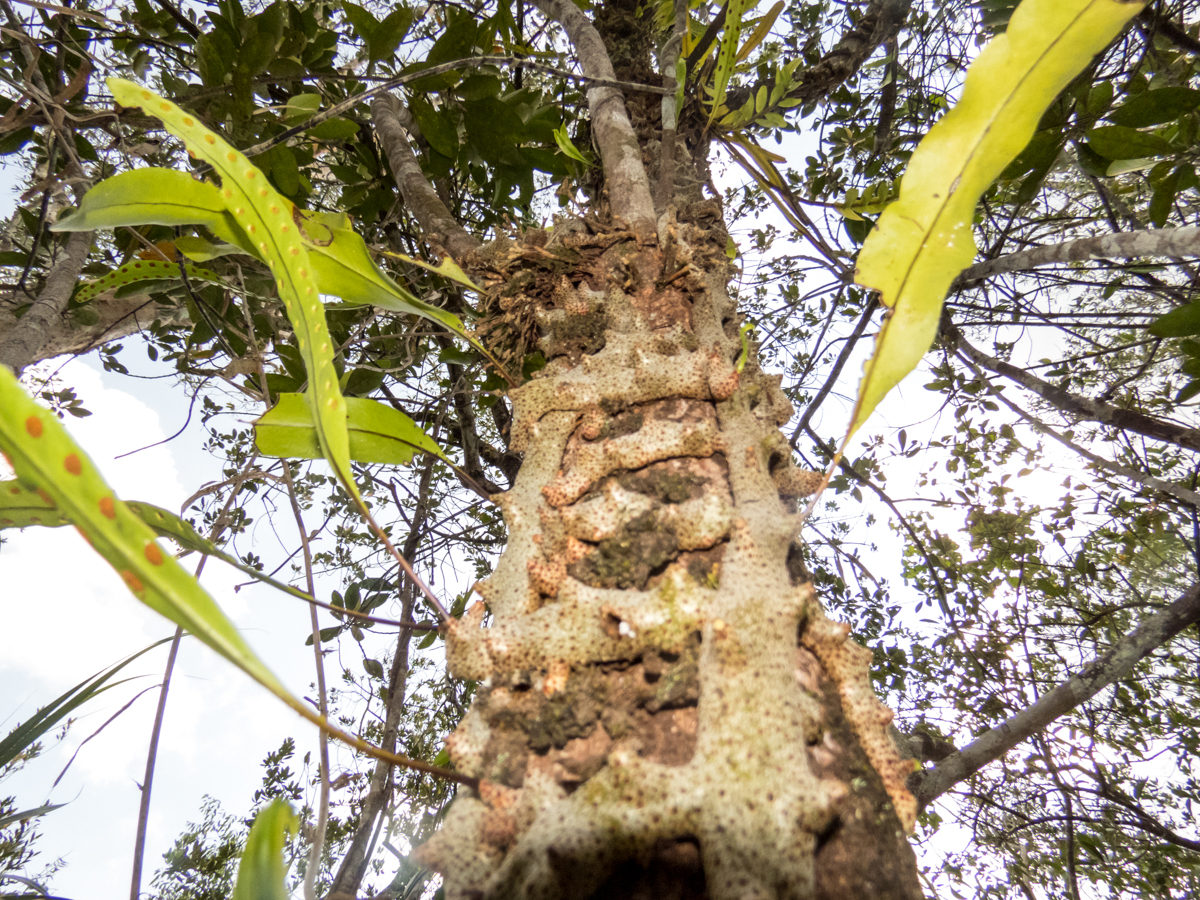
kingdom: Plantae
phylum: Tracheophyta
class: Polypodiopsida
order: Polypodiales
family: Polypodiaceae
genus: Lecanopteris
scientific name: Lecanopteris sinuosa
